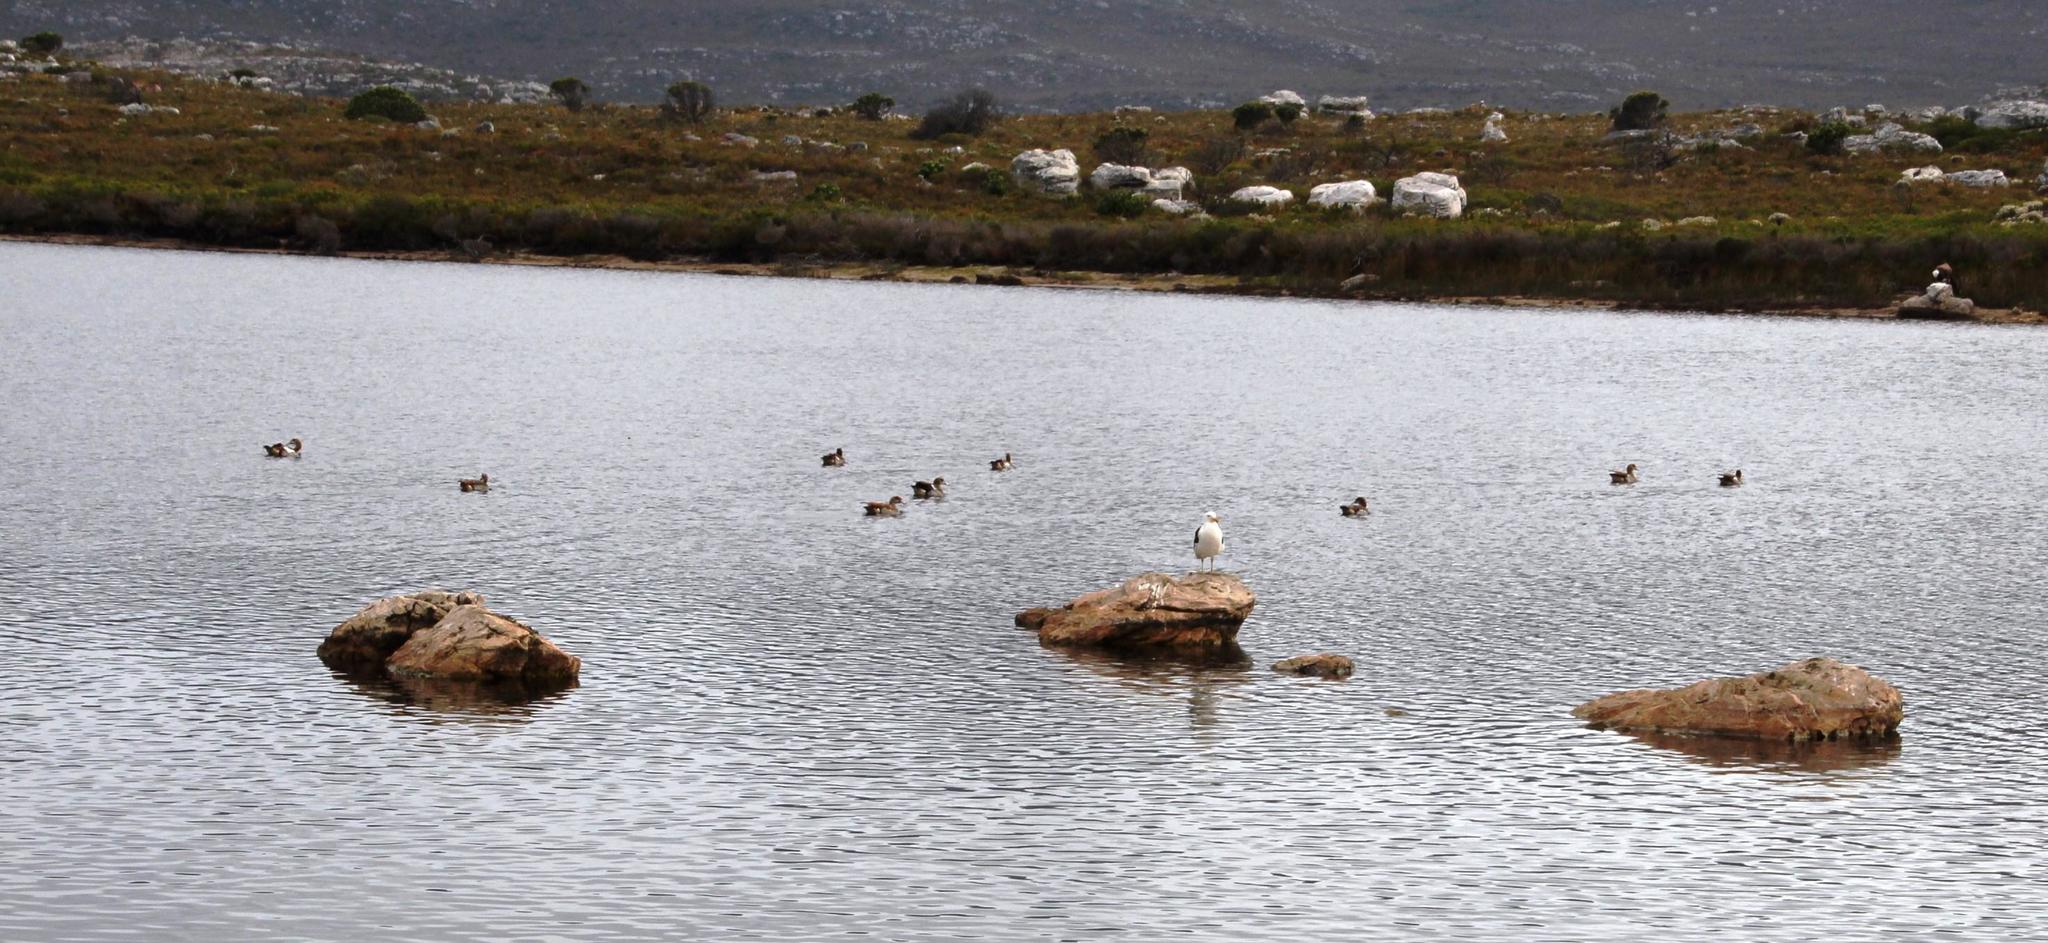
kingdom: Animalia
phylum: Chordata
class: Aves
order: Anseriformes
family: Anatidae
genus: Alopochen
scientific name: Alopochen aegyptiaca
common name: Egyptian goose
